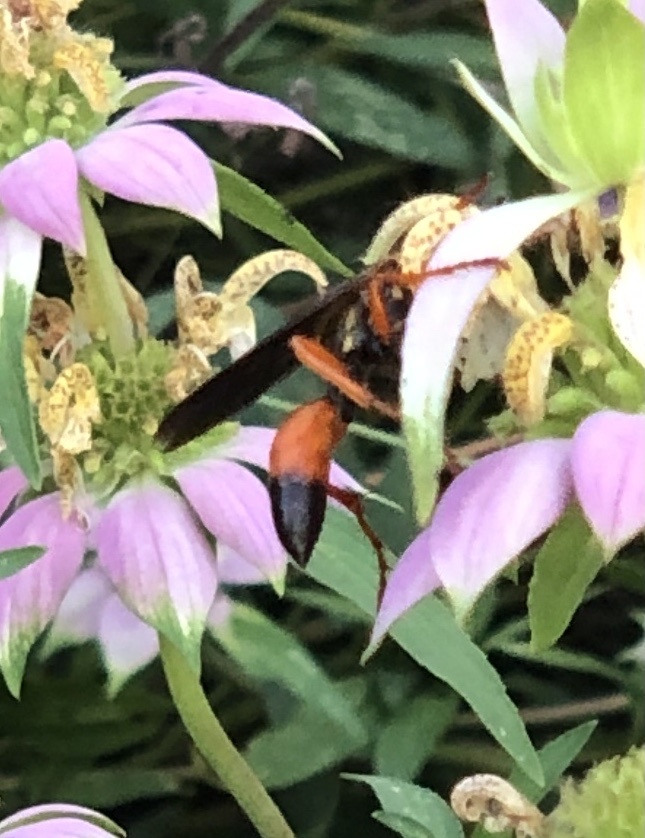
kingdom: Animalia
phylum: Arthropoda
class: Insecta
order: Hymenoptera
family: Sphecidae
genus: Sphex
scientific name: Sphex ichneumoneus
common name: Great golden digger wasp
